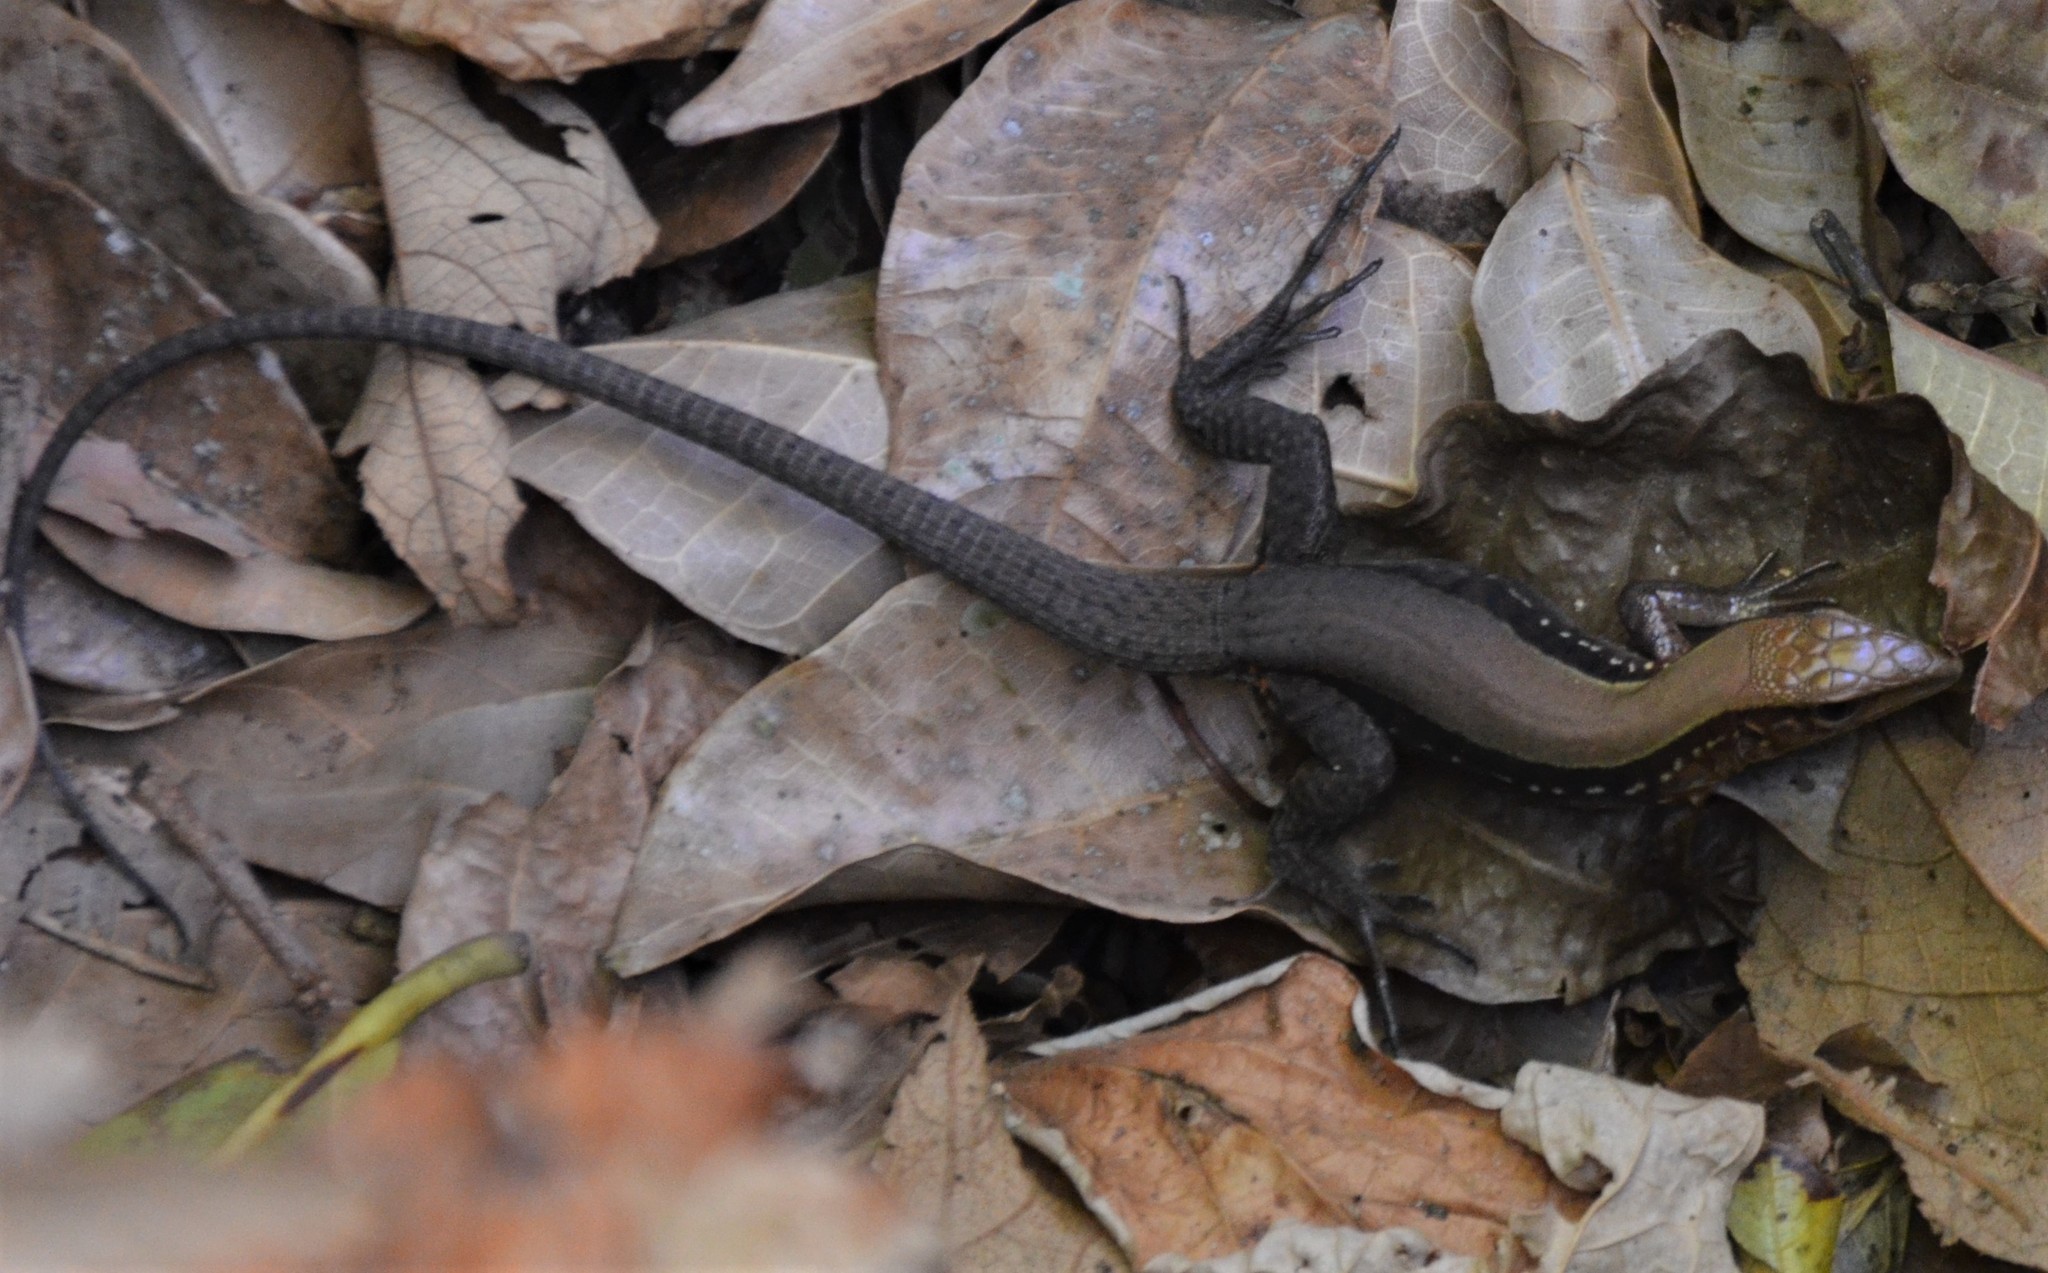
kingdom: Animalia
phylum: Chordata
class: Squamata
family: Teiidae
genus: Holcosus
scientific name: Holcosus undulatus
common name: Rainbow ameiva
